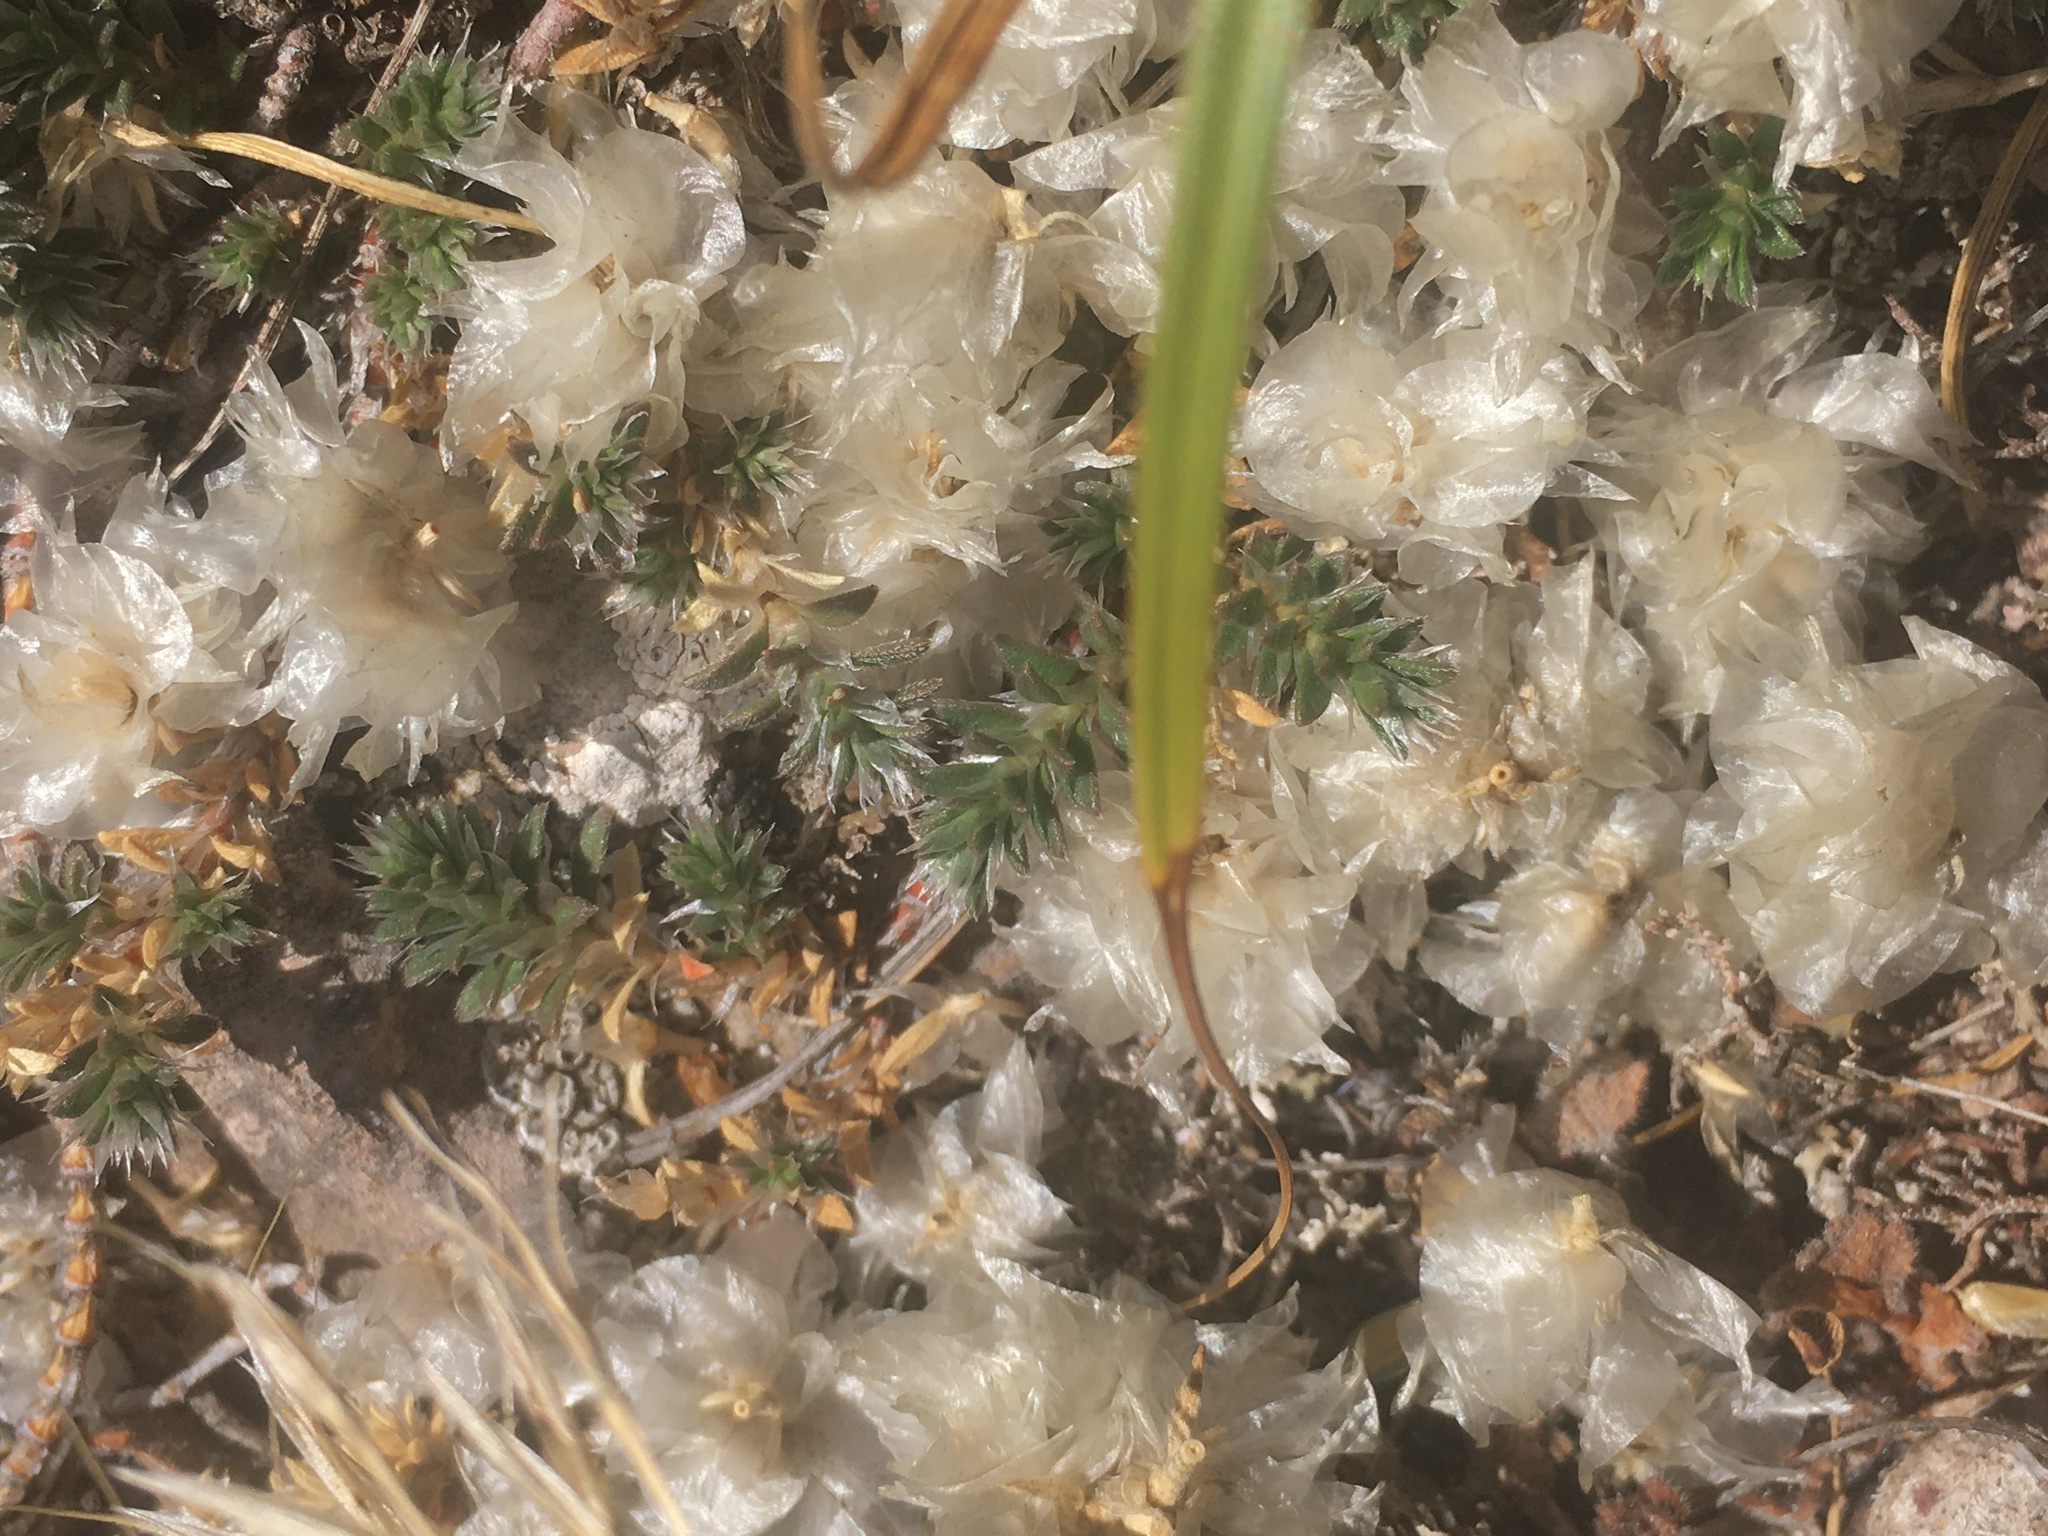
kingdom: Plantae
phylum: Tracheophyta
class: Magnoliopsida
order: Caryophyllales
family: Caryophyllaceae
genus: Paronychia
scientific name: Paronychia cephalotes
